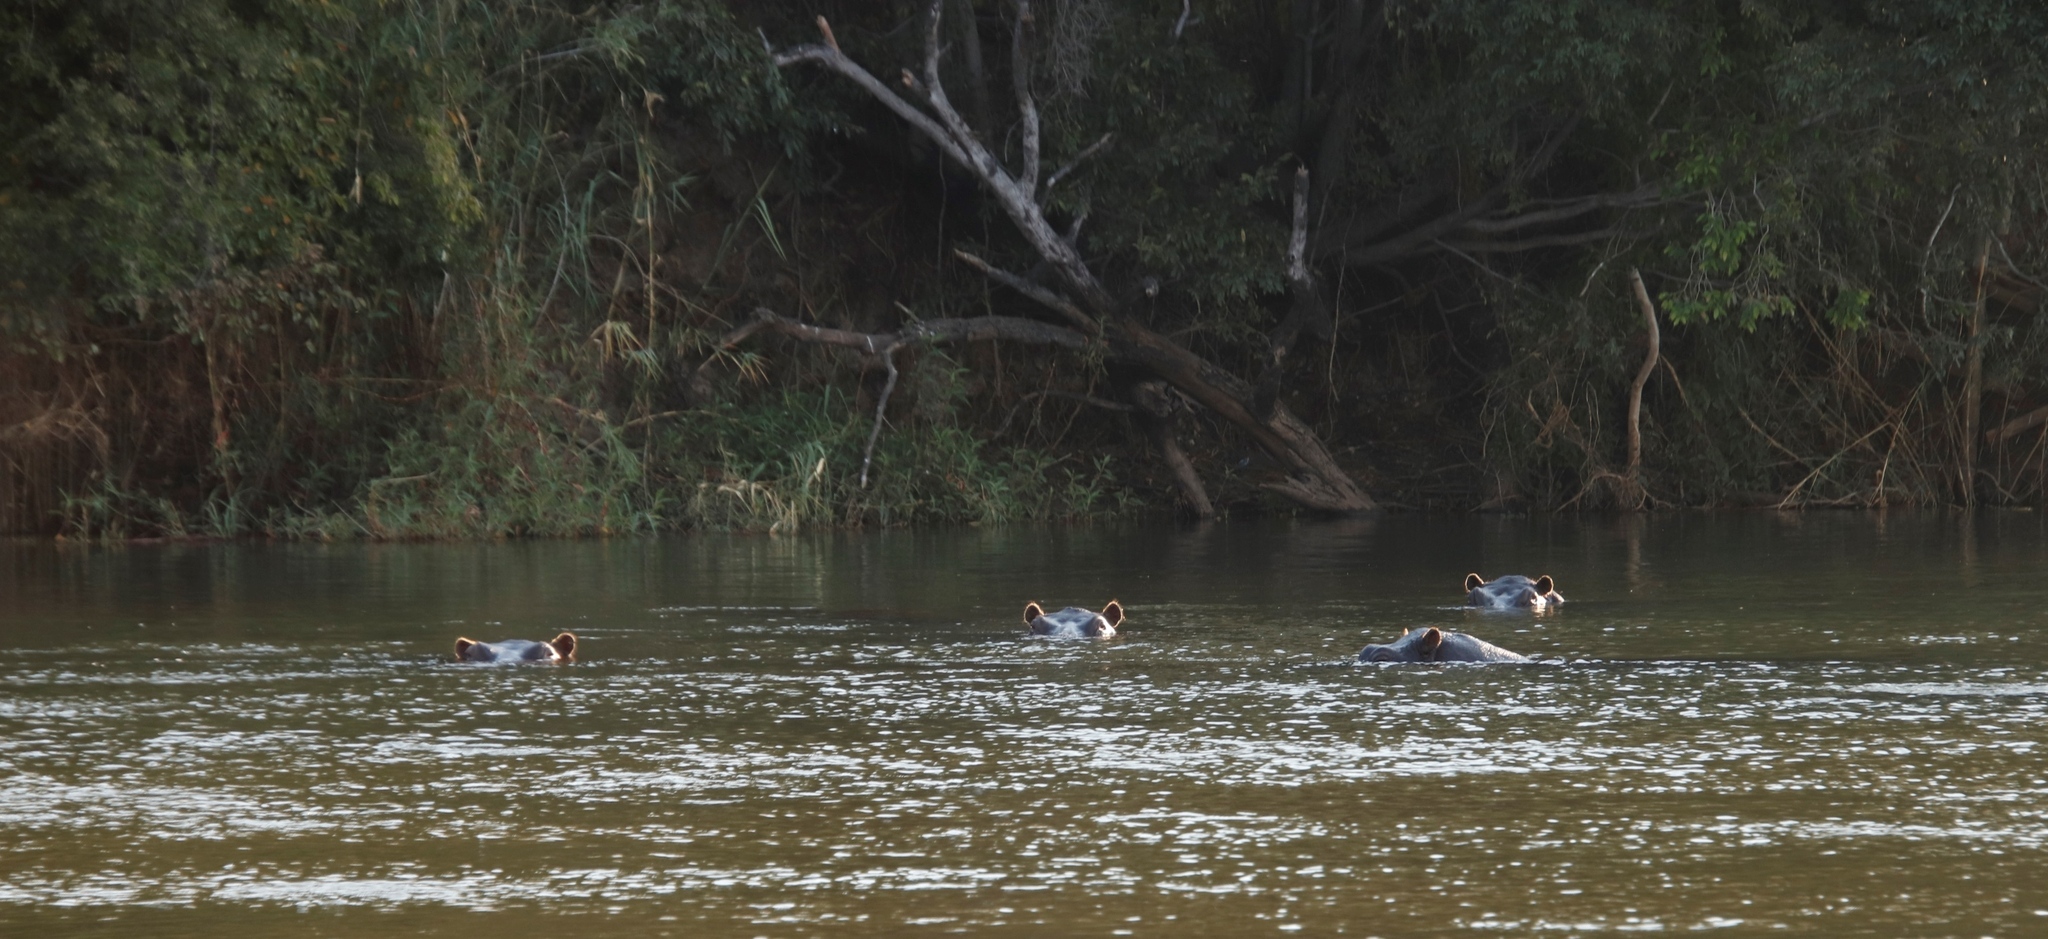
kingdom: Animalia
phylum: Chordata
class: Mammalia
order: Artiodactyla
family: Hippopotamidae
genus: Hippopotamus
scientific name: Hippopotamus amphibius
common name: Common hippopotamus
